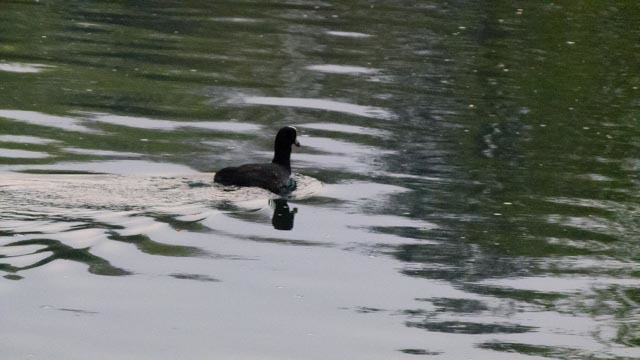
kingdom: Animalia
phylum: Chordata
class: Aves
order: Gruiformes
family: Rallidae
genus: Fulica
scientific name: Fulica atra
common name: Eurasian coot
